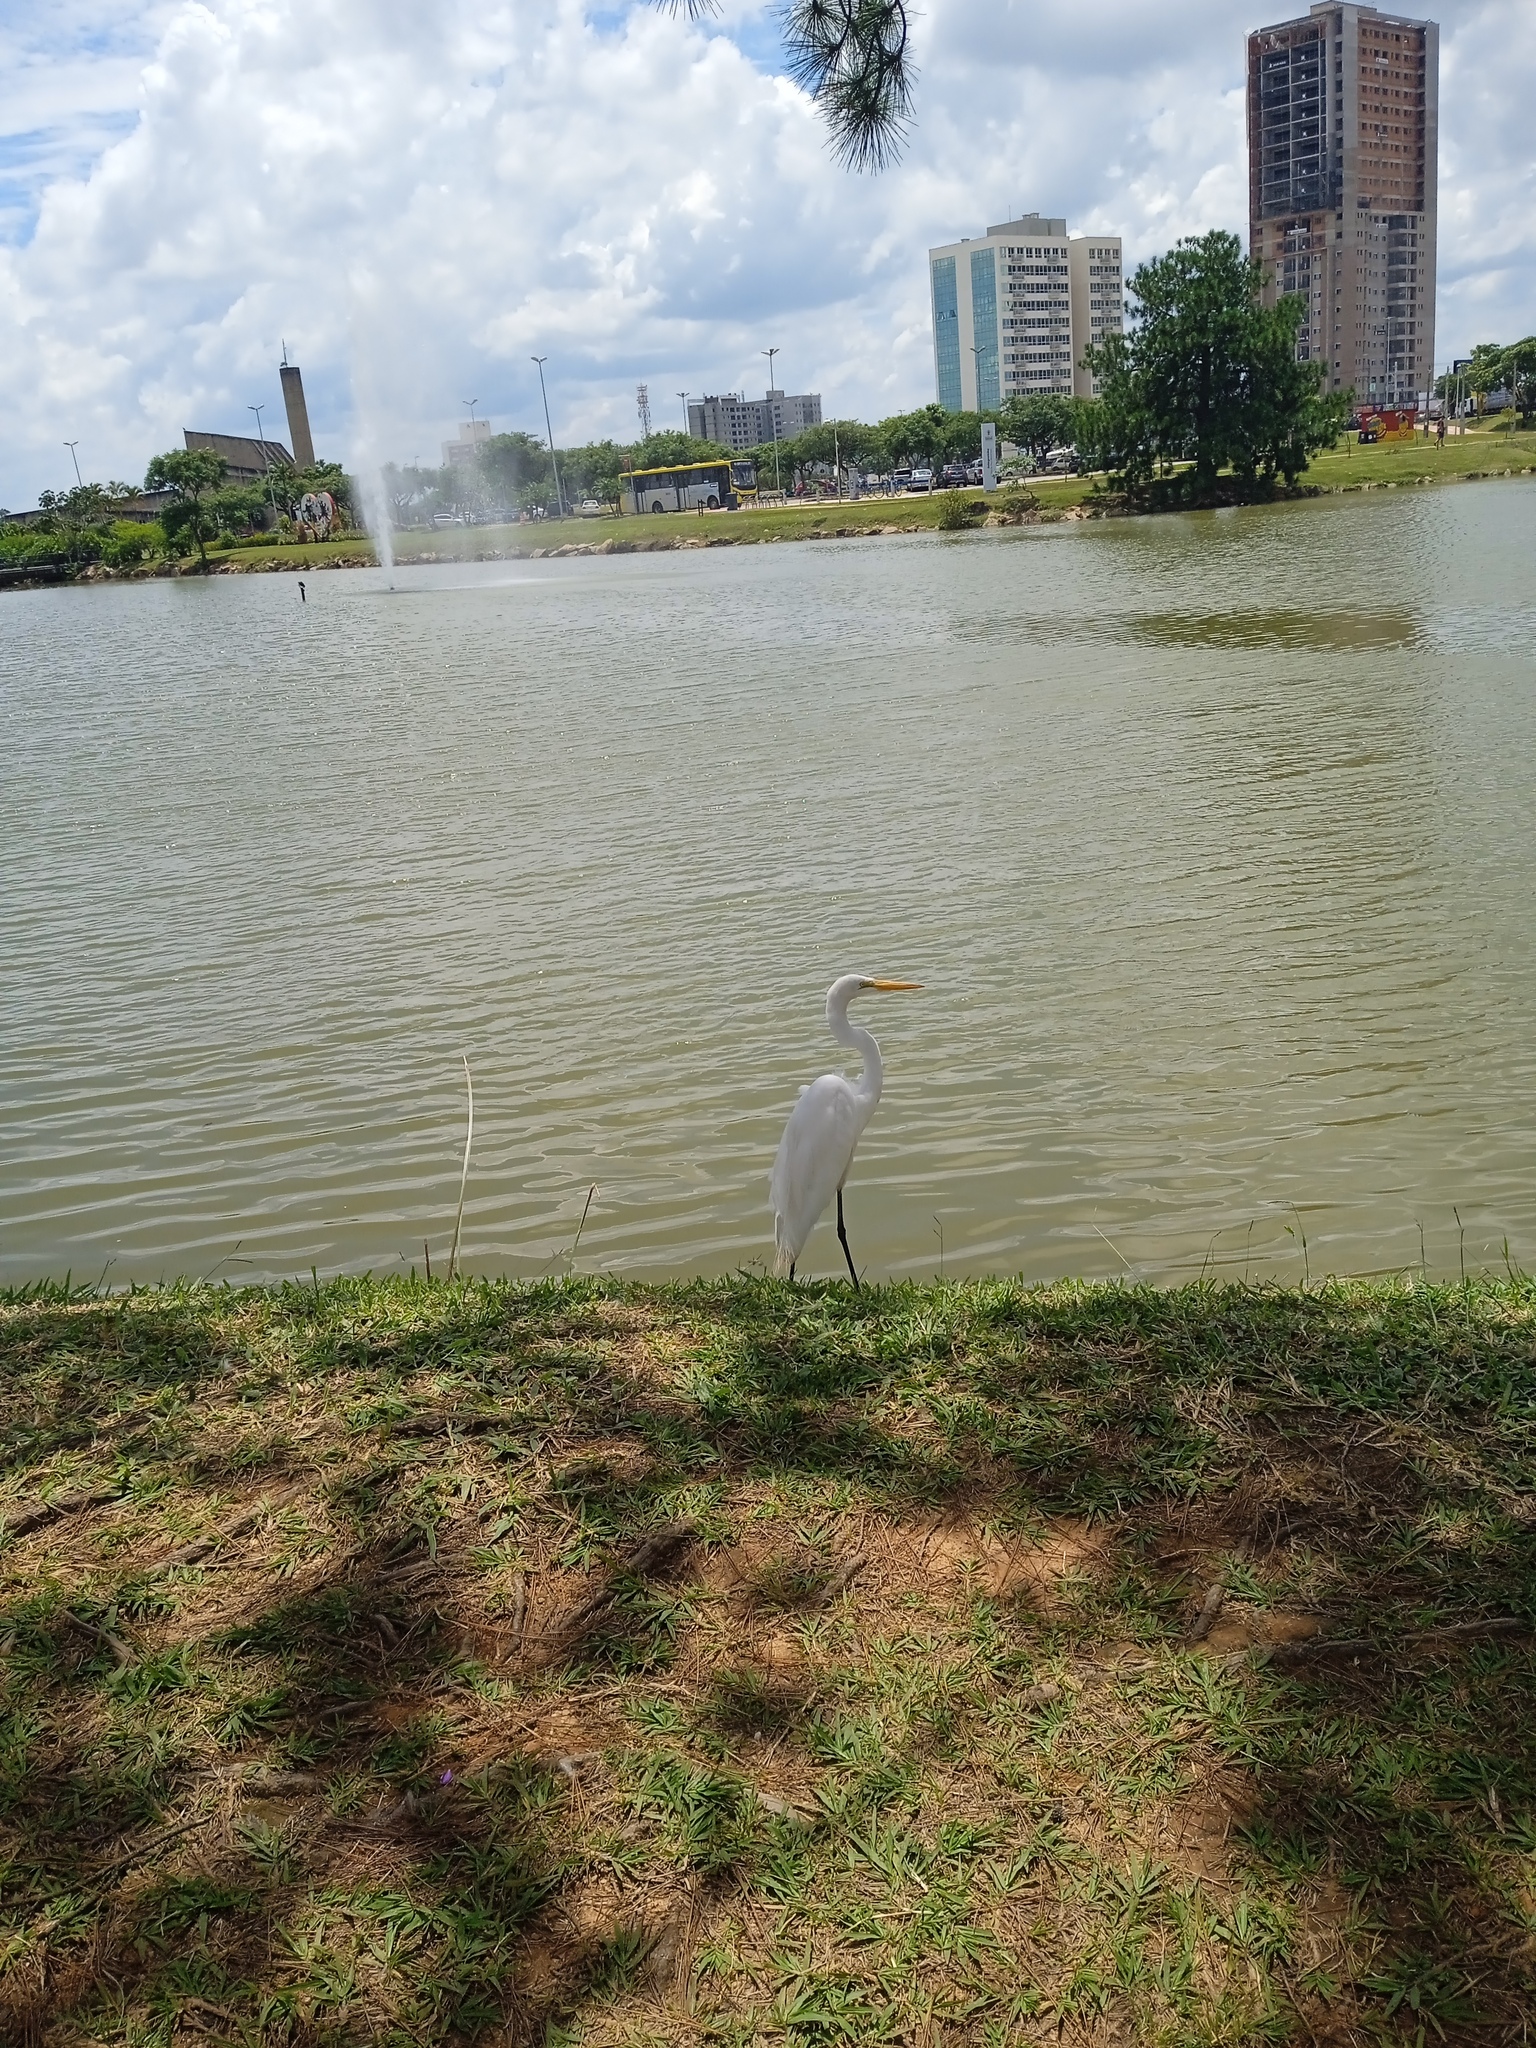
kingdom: Animalia
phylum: Chordata
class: Aves
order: Pelecaniformes
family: Ardeidae
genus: Ardea
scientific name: Ardea alba
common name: Great egret
